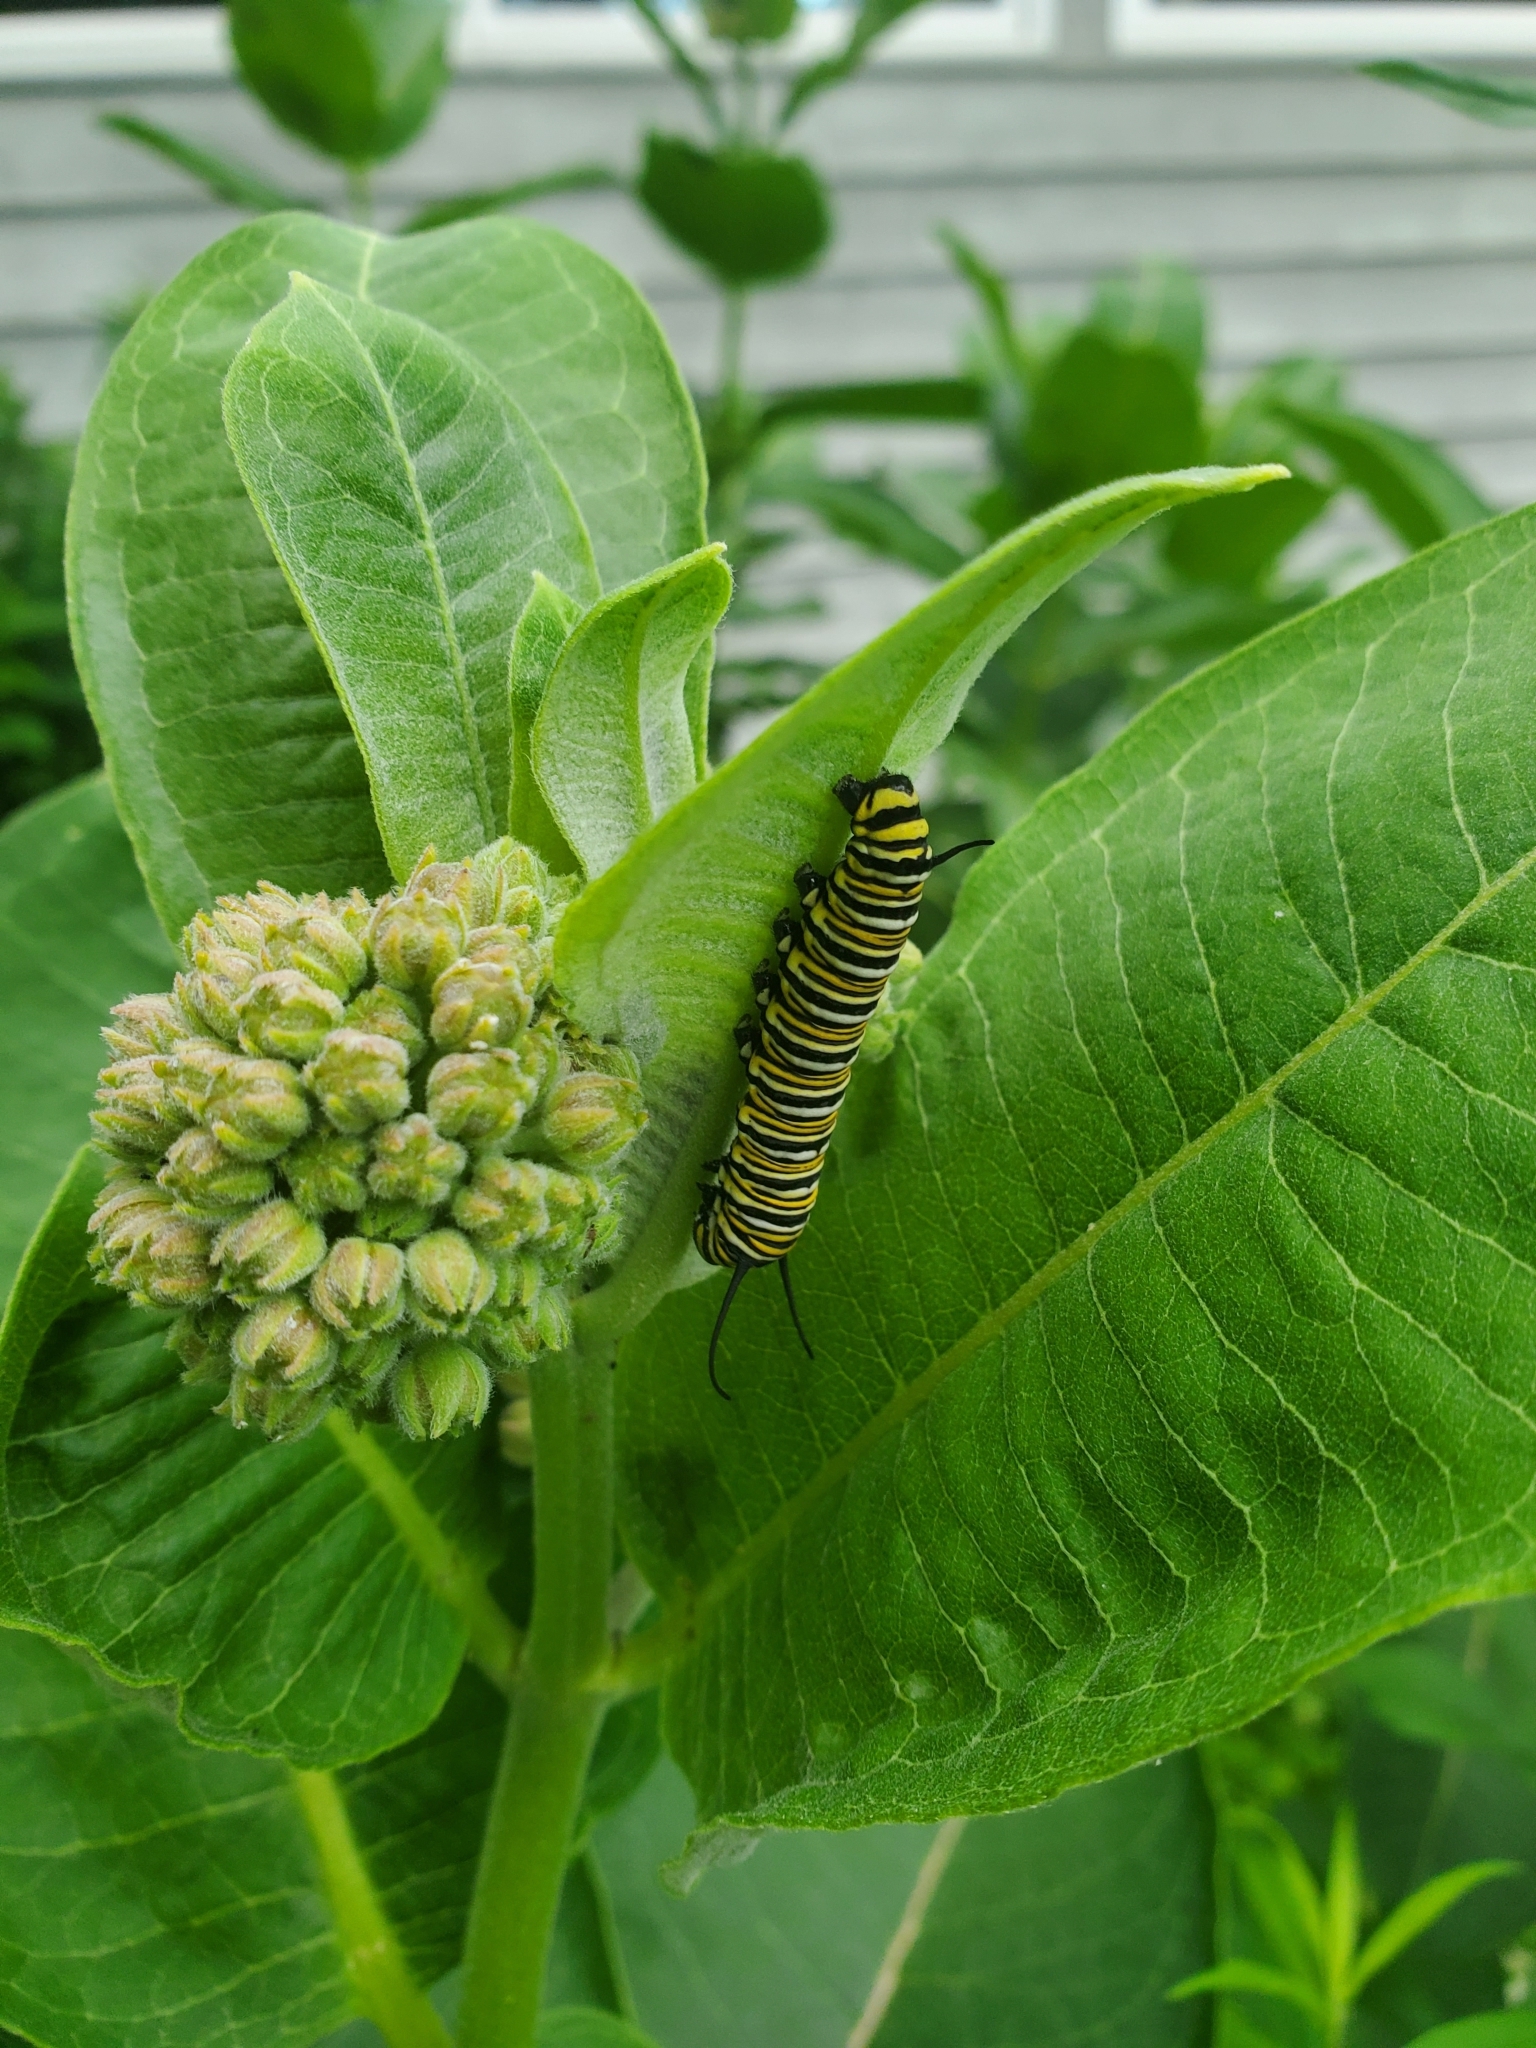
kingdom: Animalia
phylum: Arthropoda
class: Insecta
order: Lepidoptera
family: Nymphalidae
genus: Danaus
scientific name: Danaus plexippus
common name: Monarch
